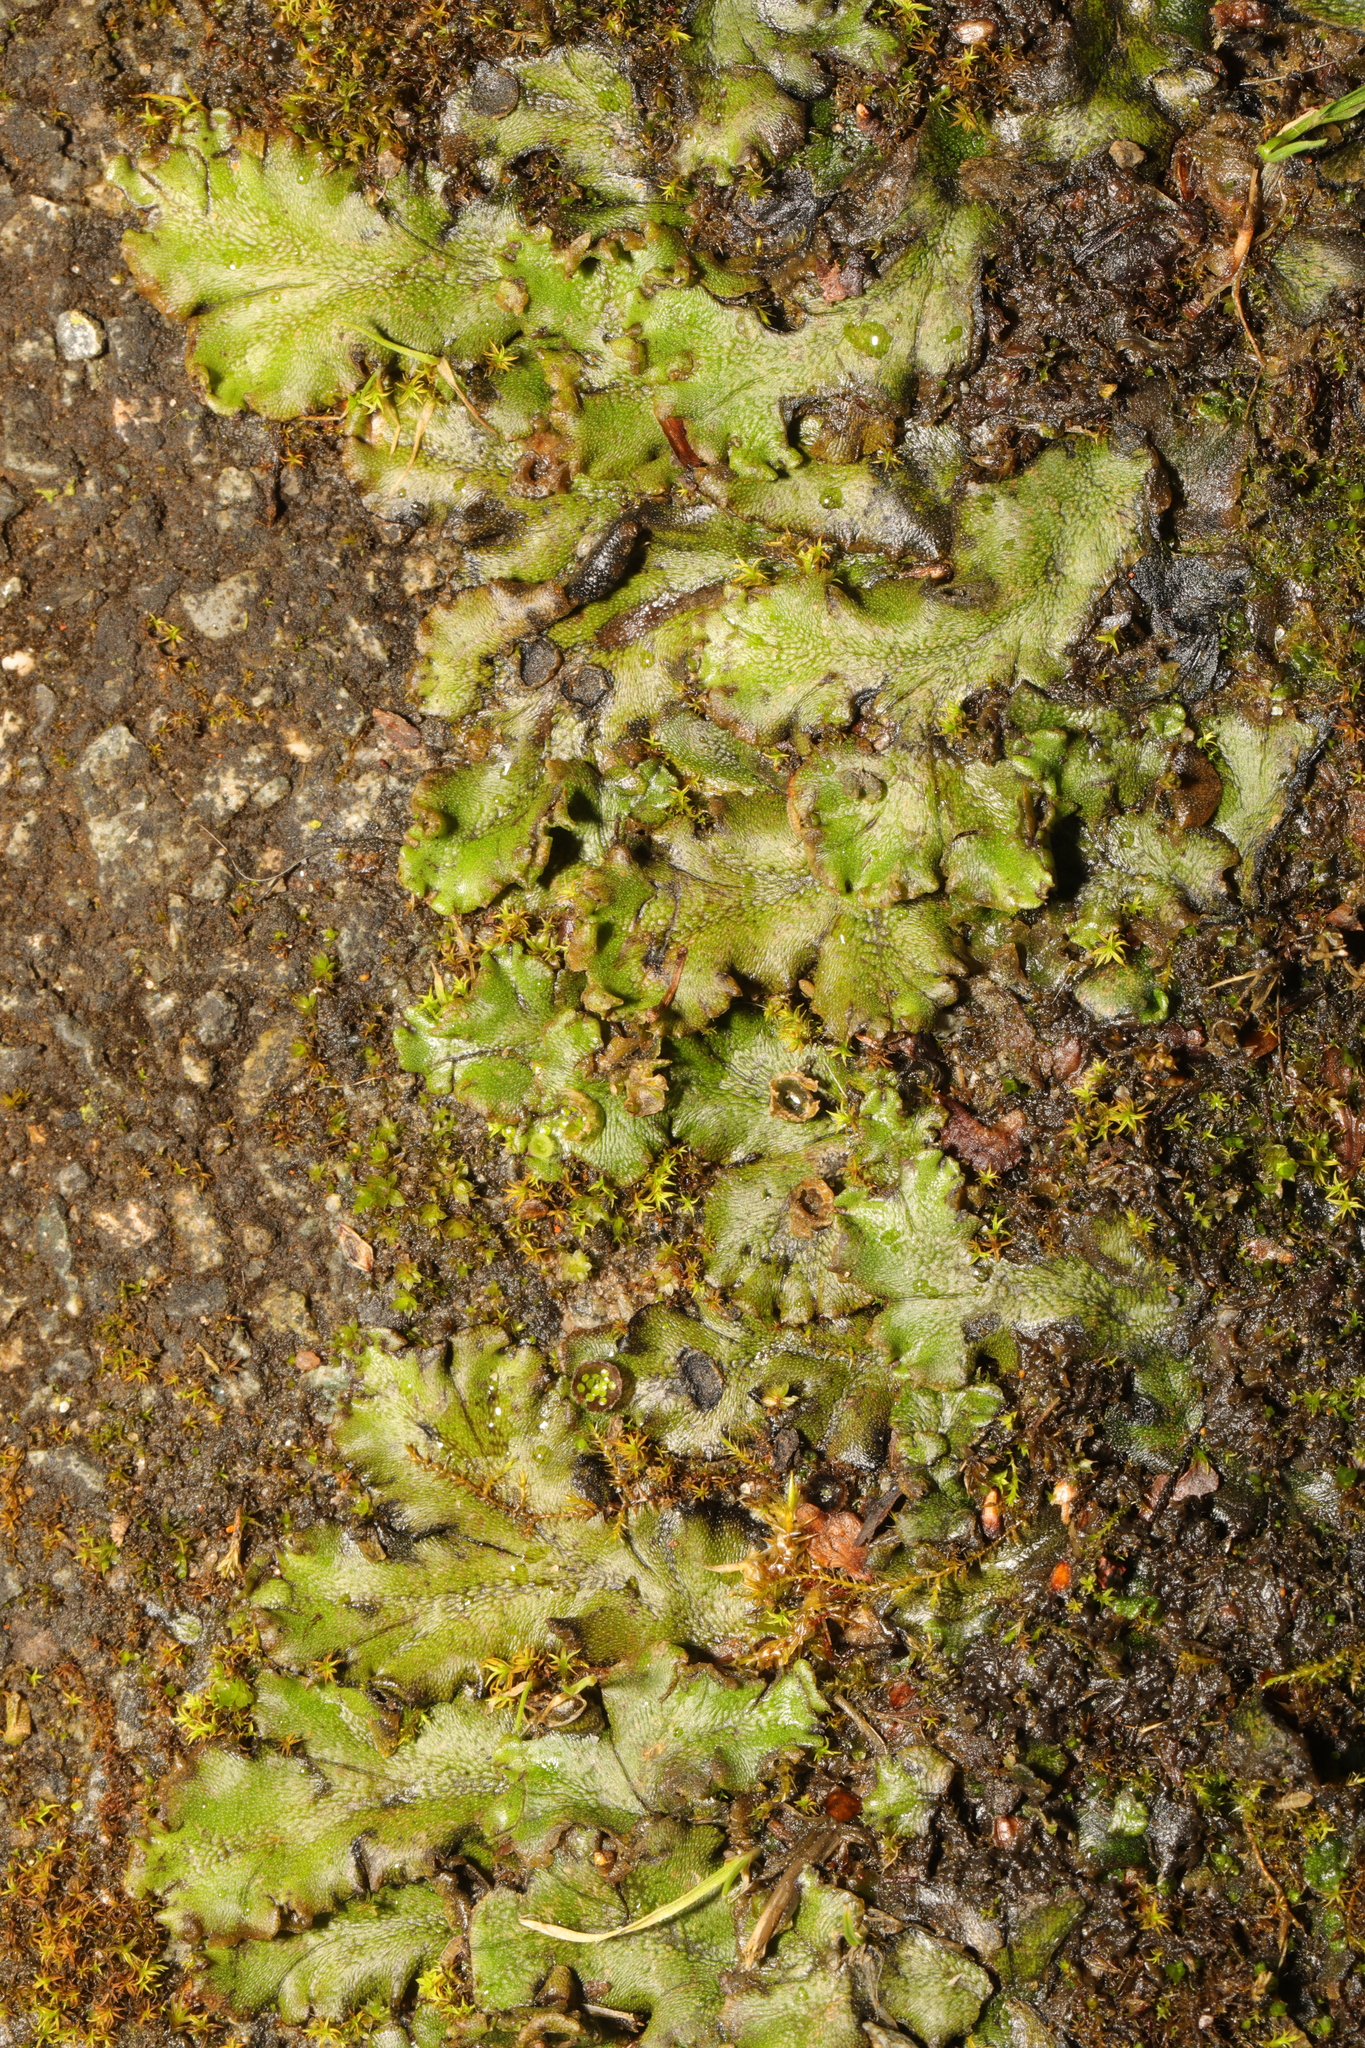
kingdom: Plantae
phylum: Marchantiophyta
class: Marchantiopsida
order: Marchantiales
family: Marchantiaceae
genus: Marchantia
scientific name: Marchantia polymorpha
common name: Common liverwort
